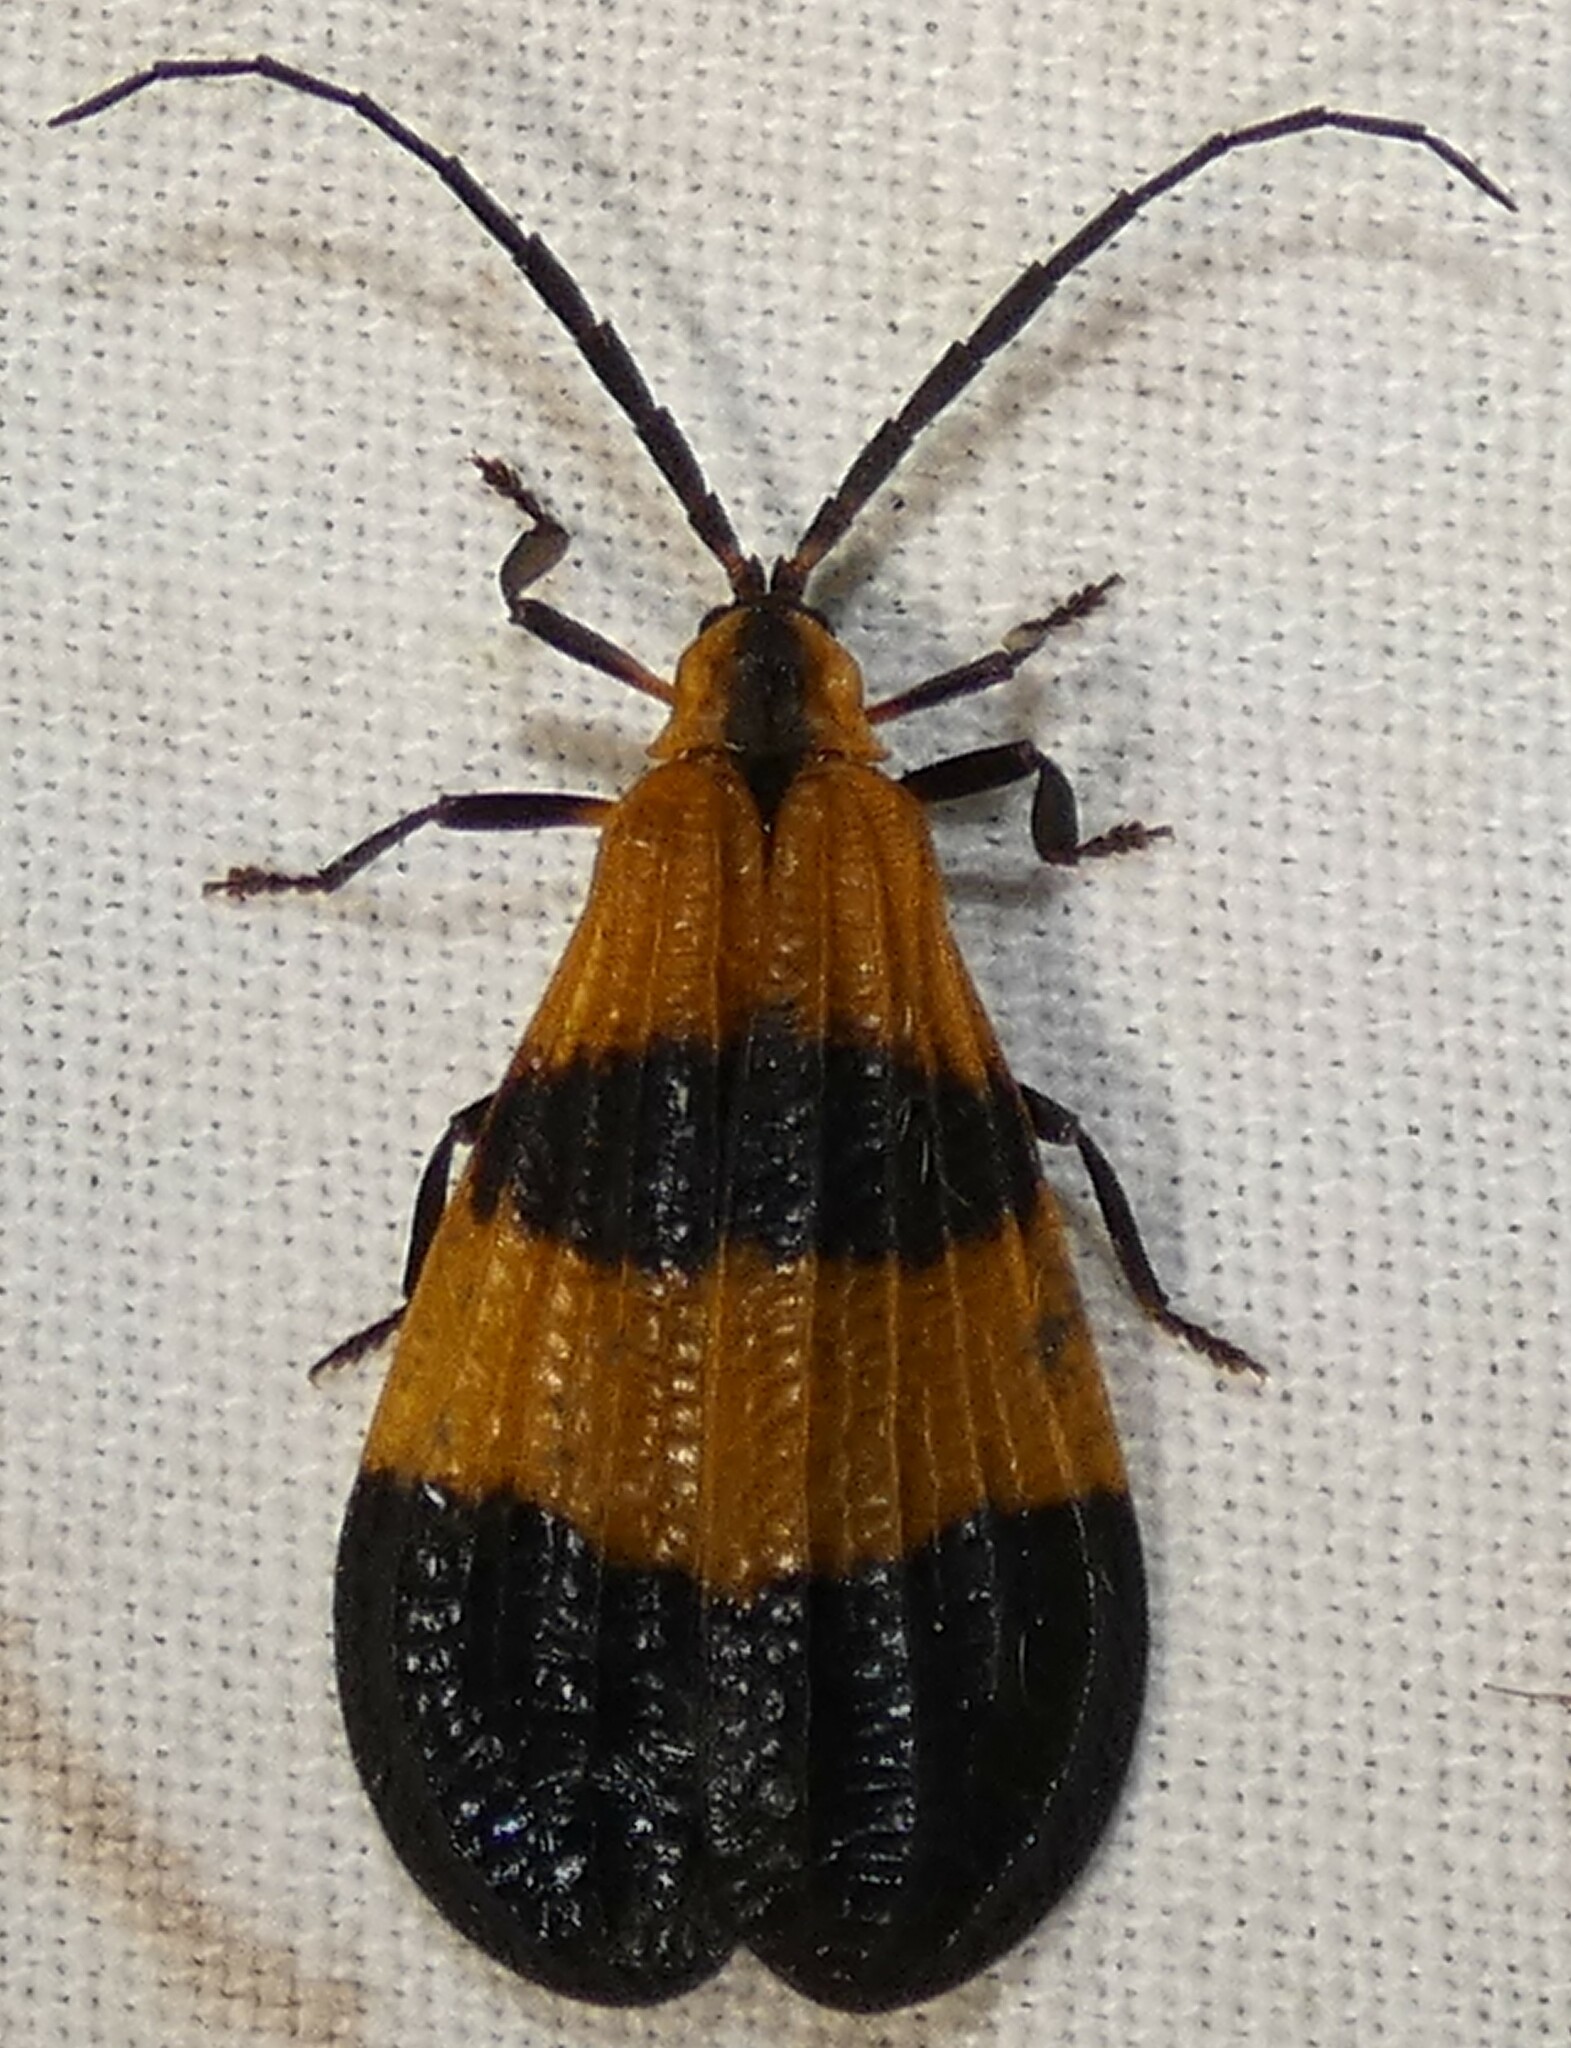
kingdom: Animalia
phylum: Arthropoda
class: Insecta
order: Coleoptera
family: Lycidae
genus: Calopteron
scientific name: Calopteron terminale
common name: End band net-winged beetle
